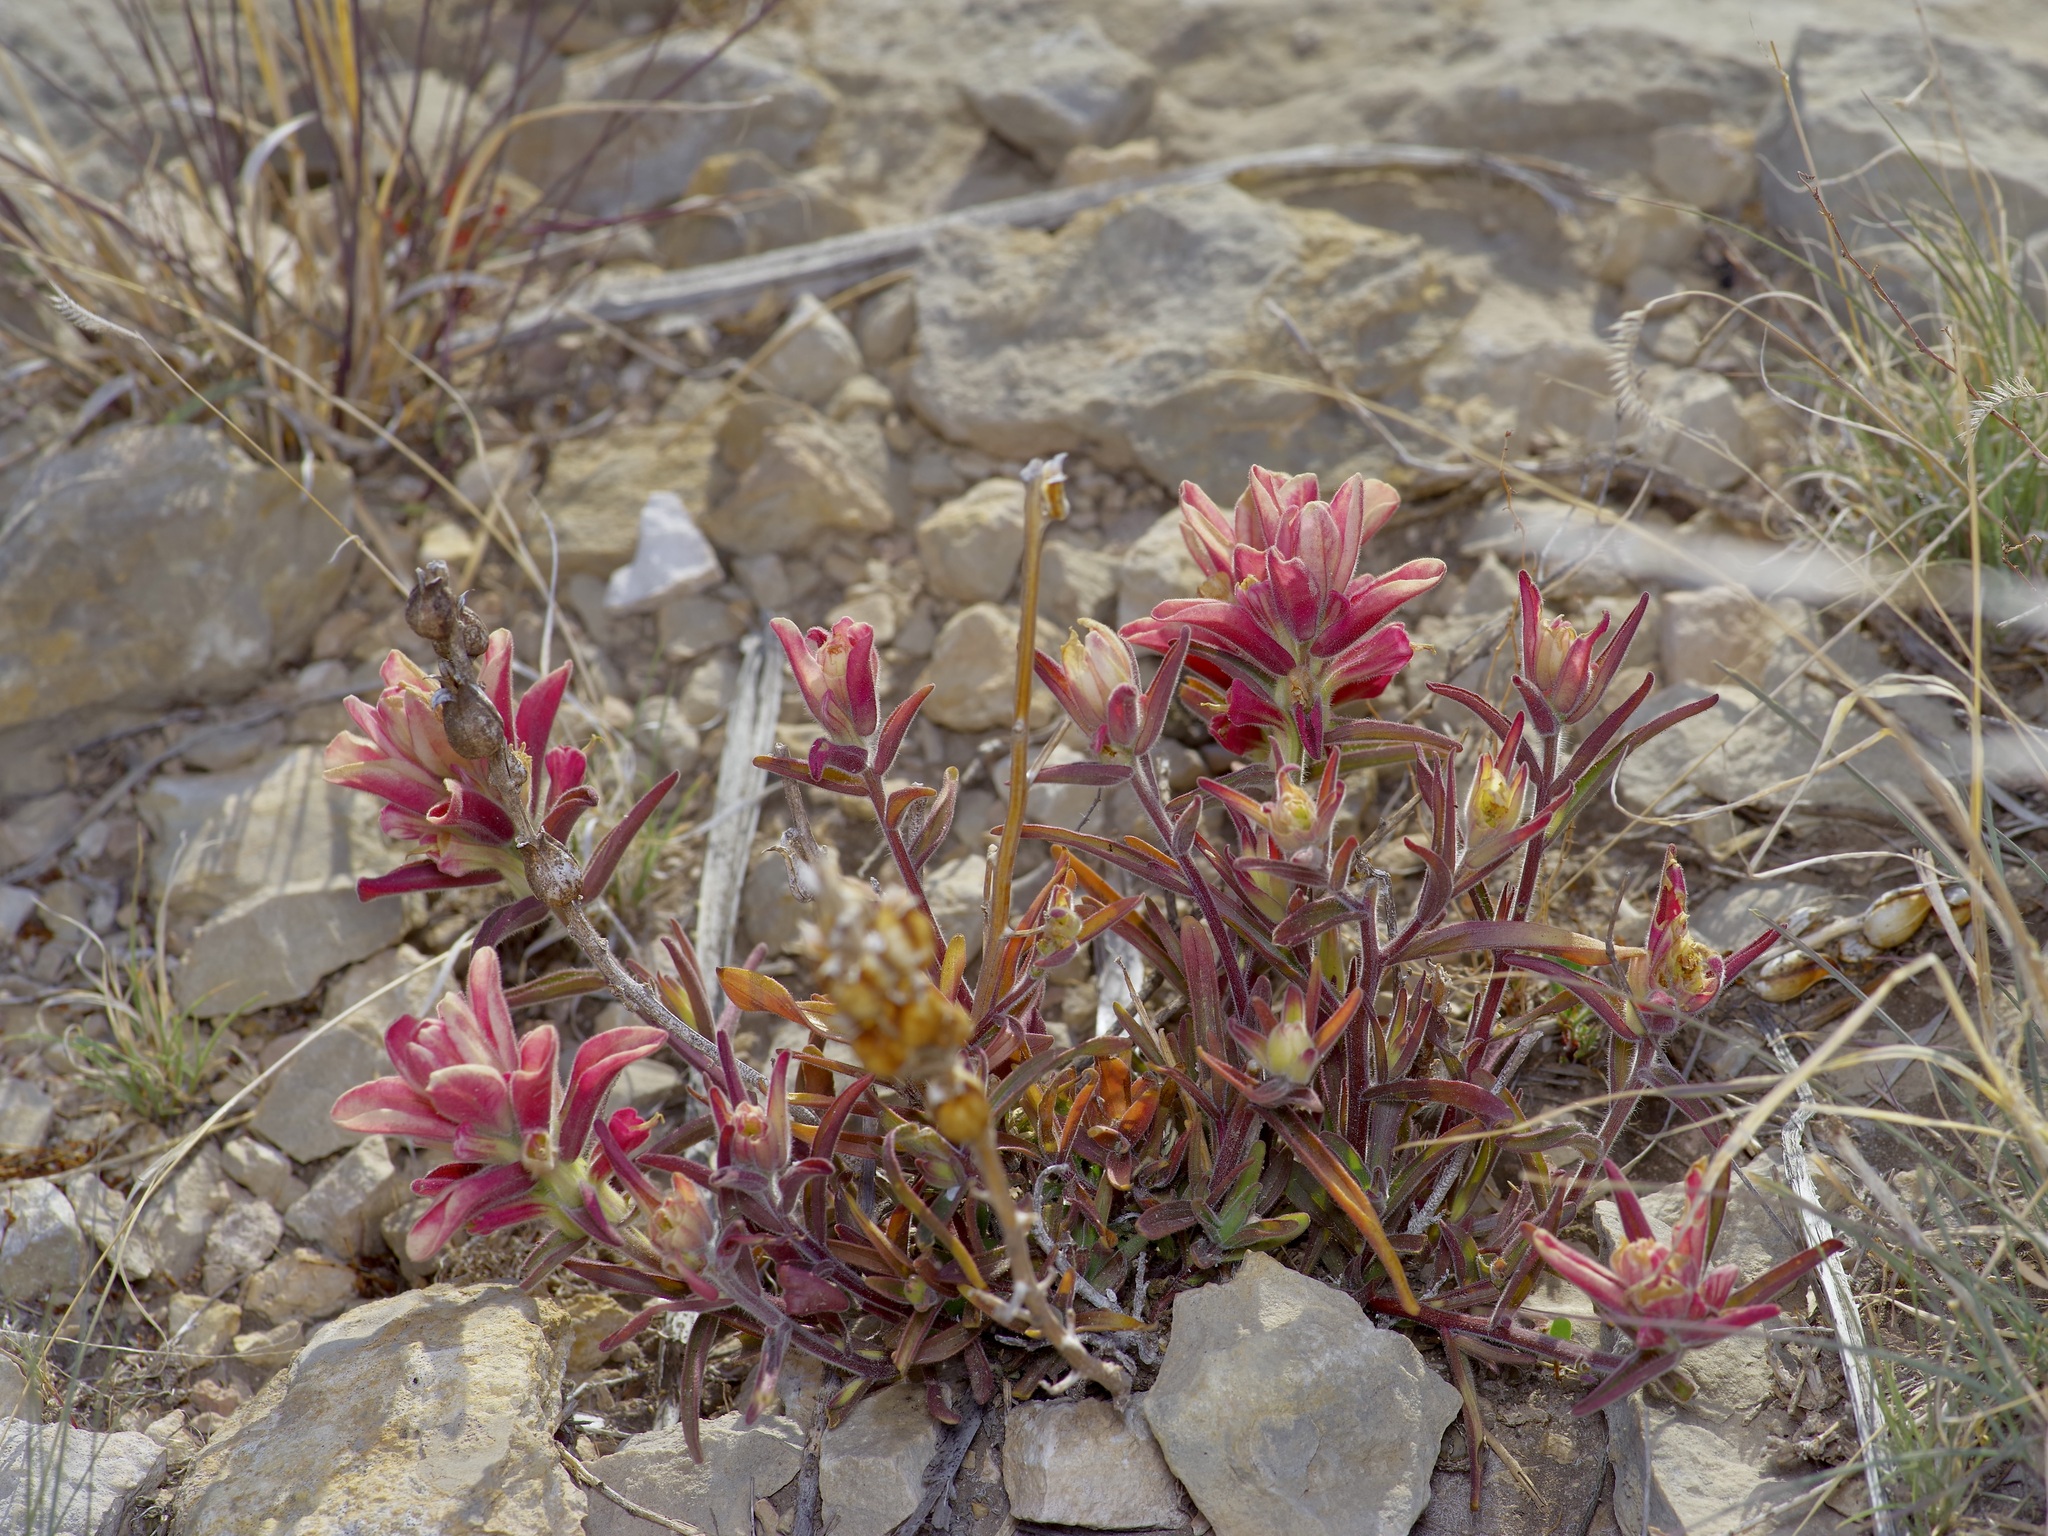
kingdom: Plantae
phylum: Tracheophyta
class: Magnoliopsida
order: Lamiales
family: Orobanchaceae
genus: Castilleja
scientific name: Castilleja rigida
